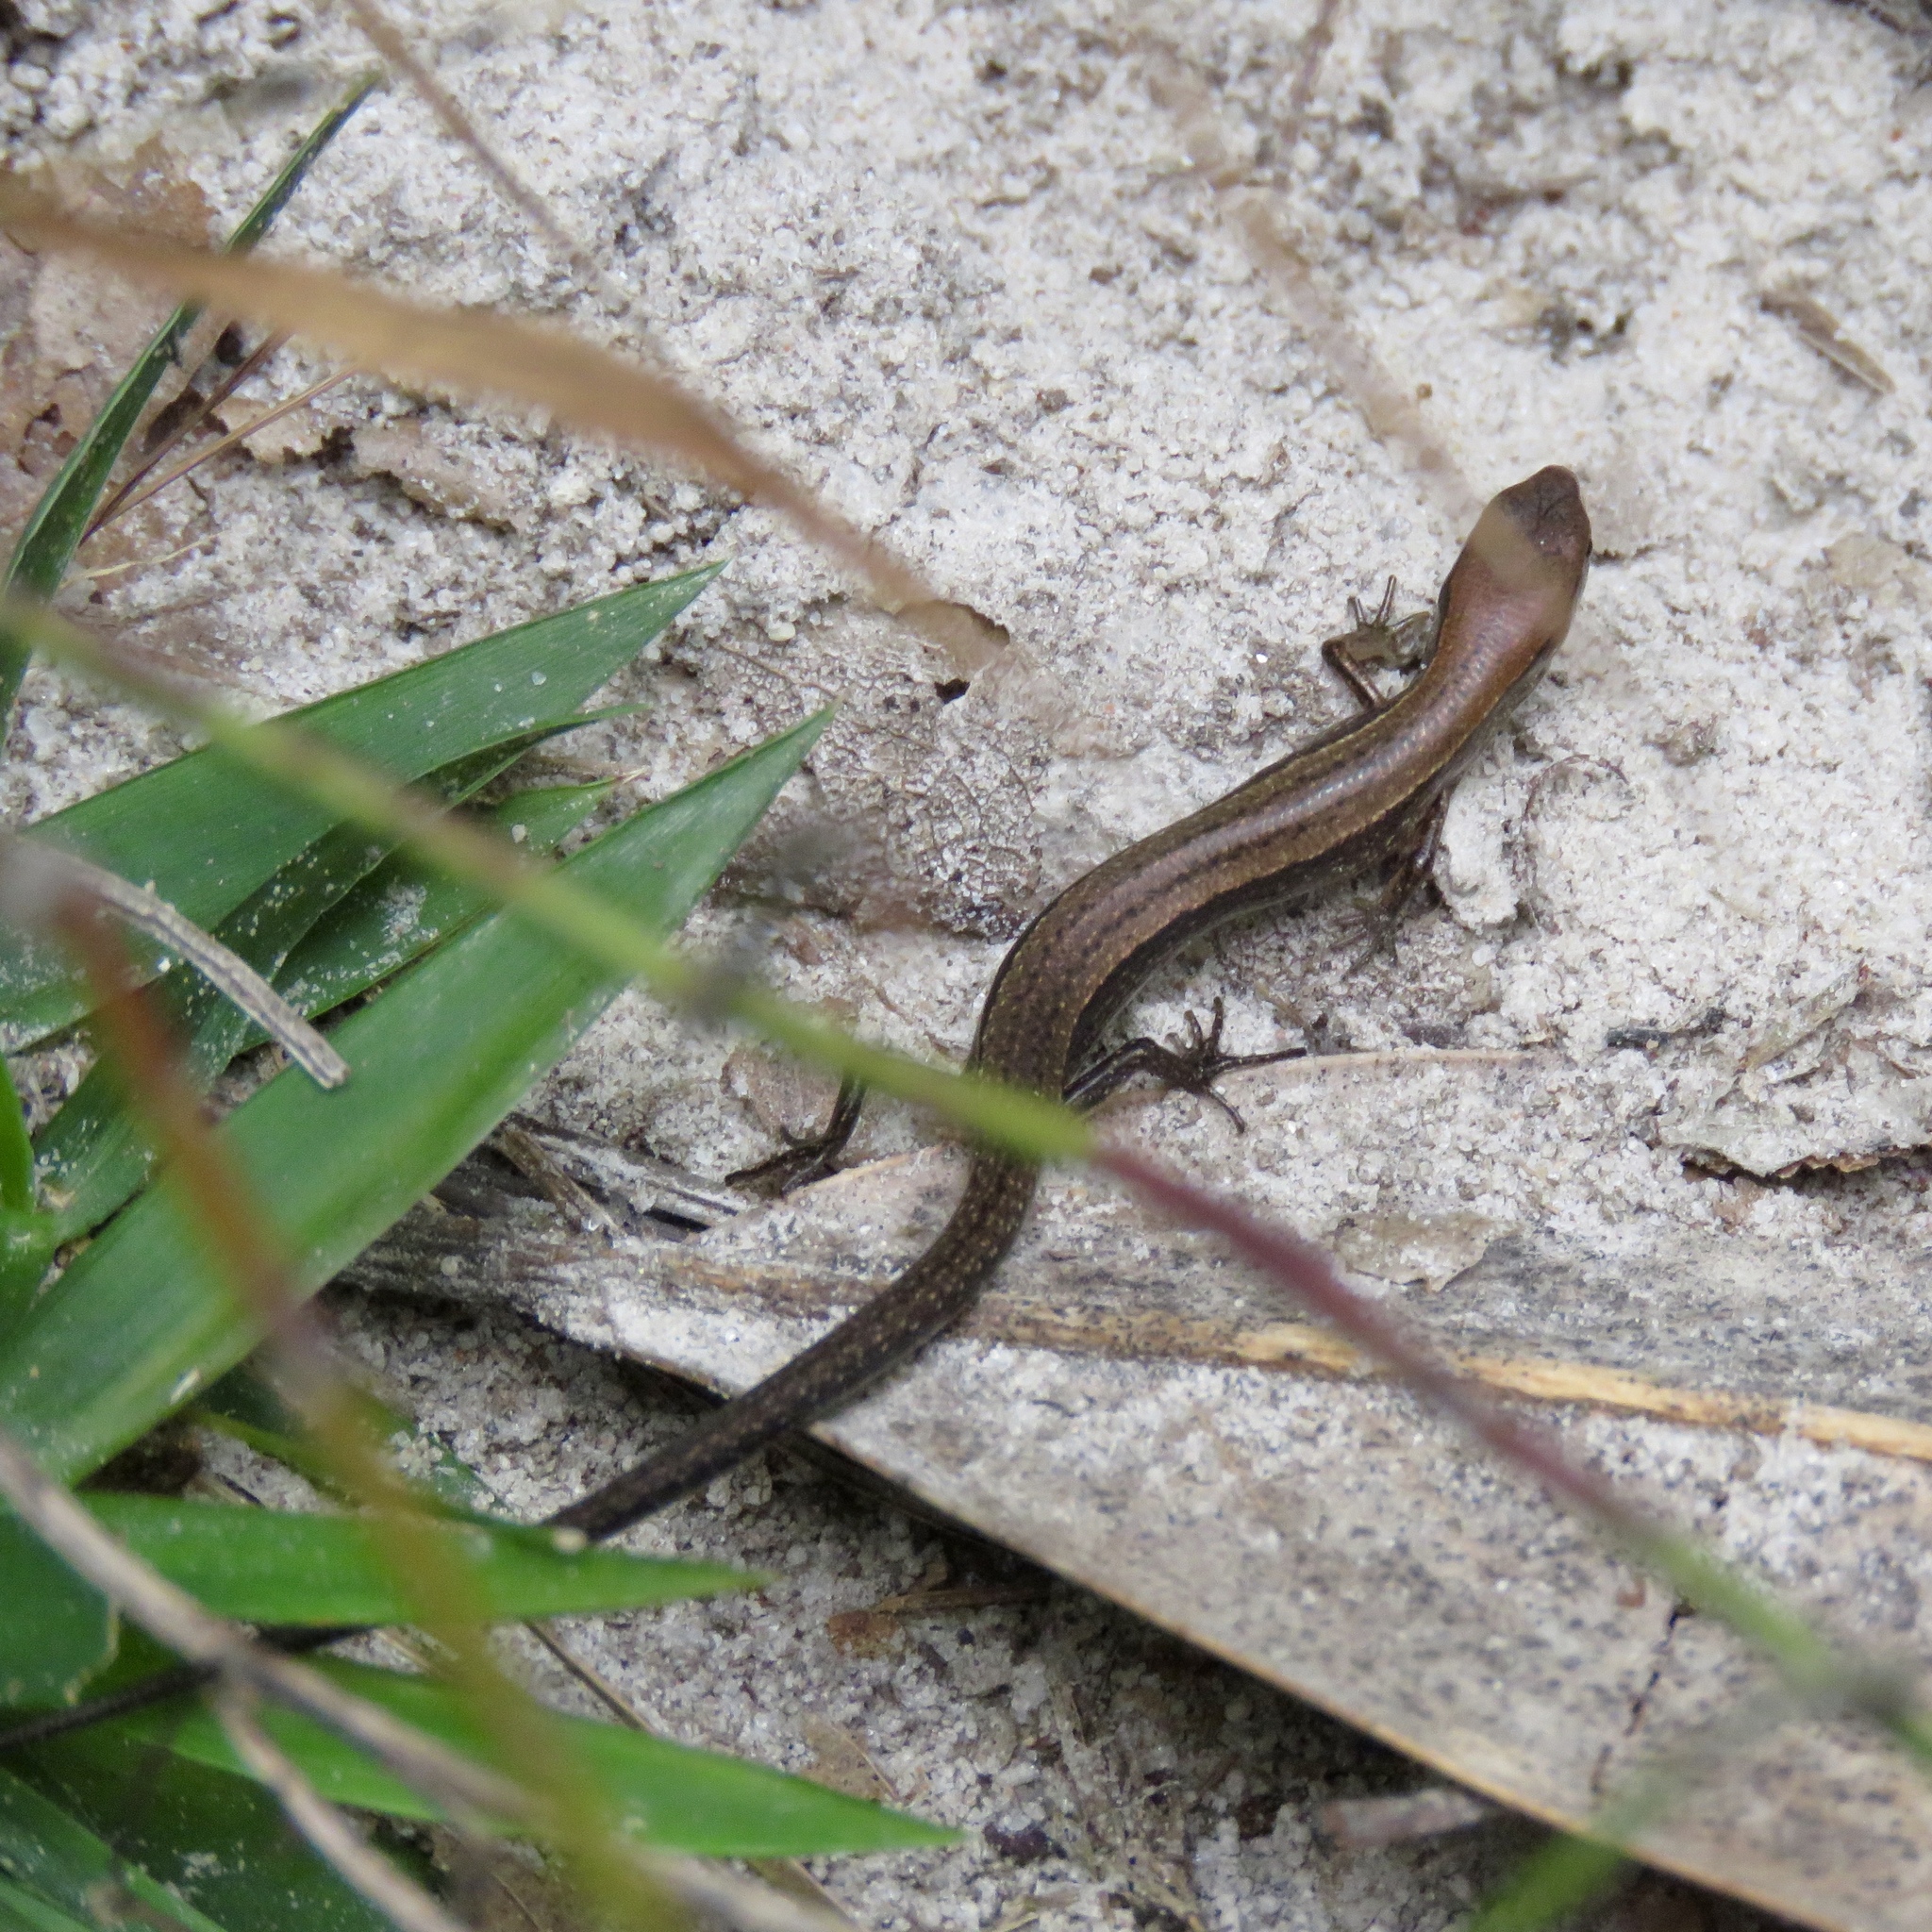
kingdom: Animalia
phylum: Chordata
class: Squamata
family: Scincidae
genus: Scincella
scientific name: Scincella lateralis
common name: Ground skink
